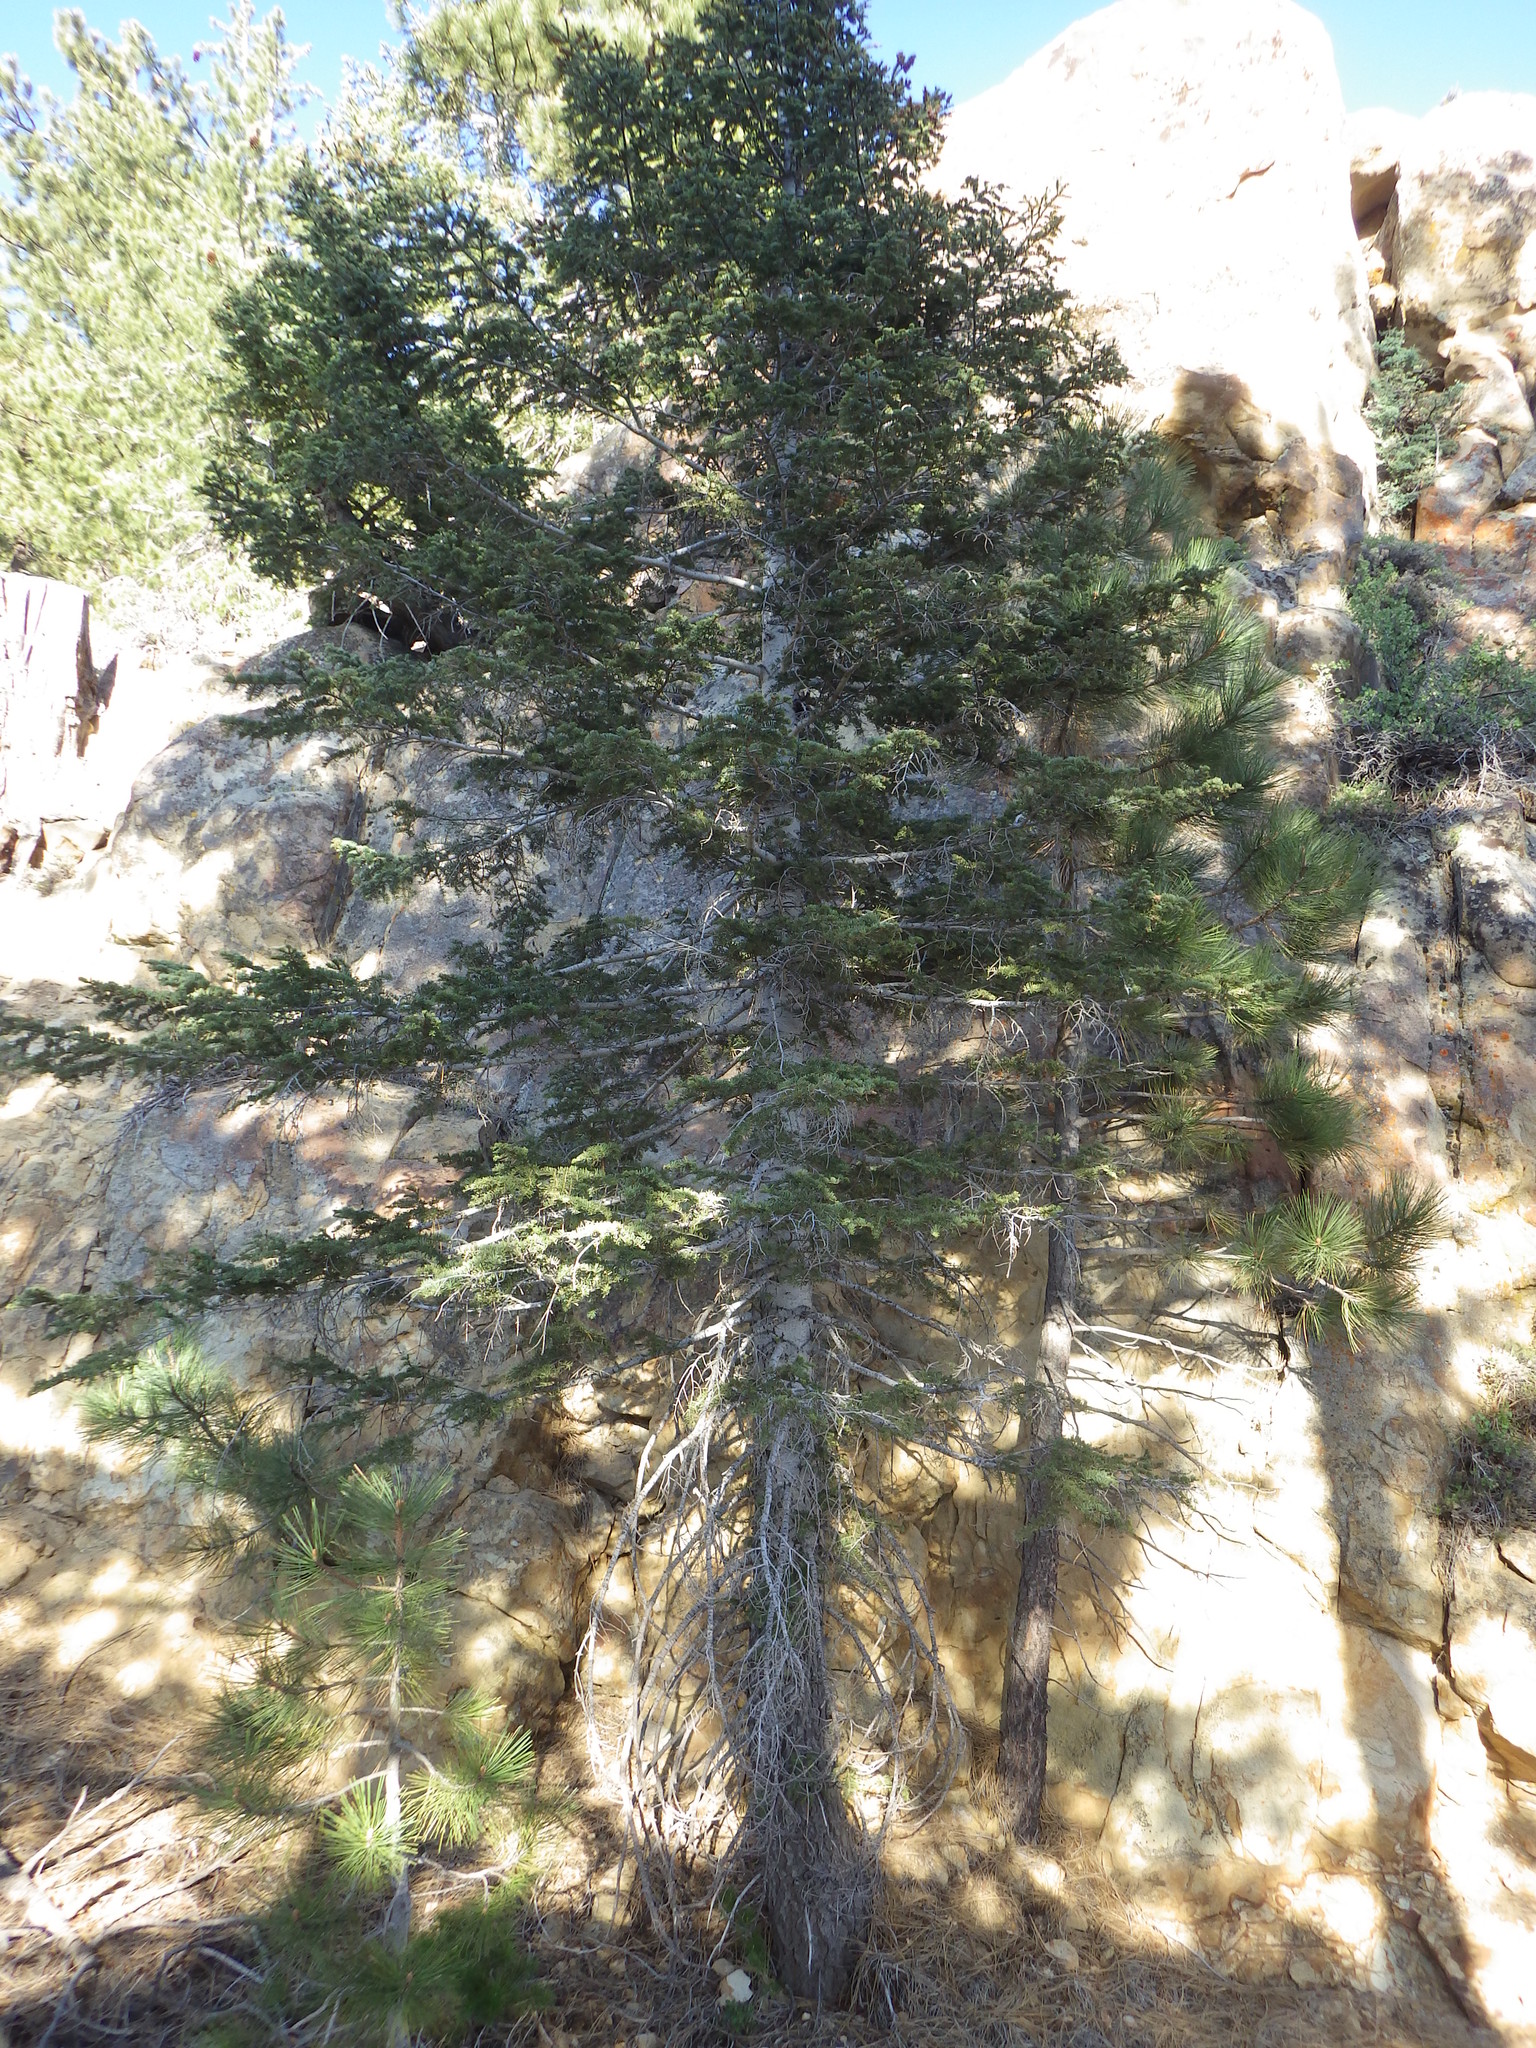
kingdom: Plantae
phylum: Tracheophyta
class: Pinopsida
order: Pinales
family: Pinaceae
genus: Abies
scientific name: Abies concolor
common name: Colorado fir
